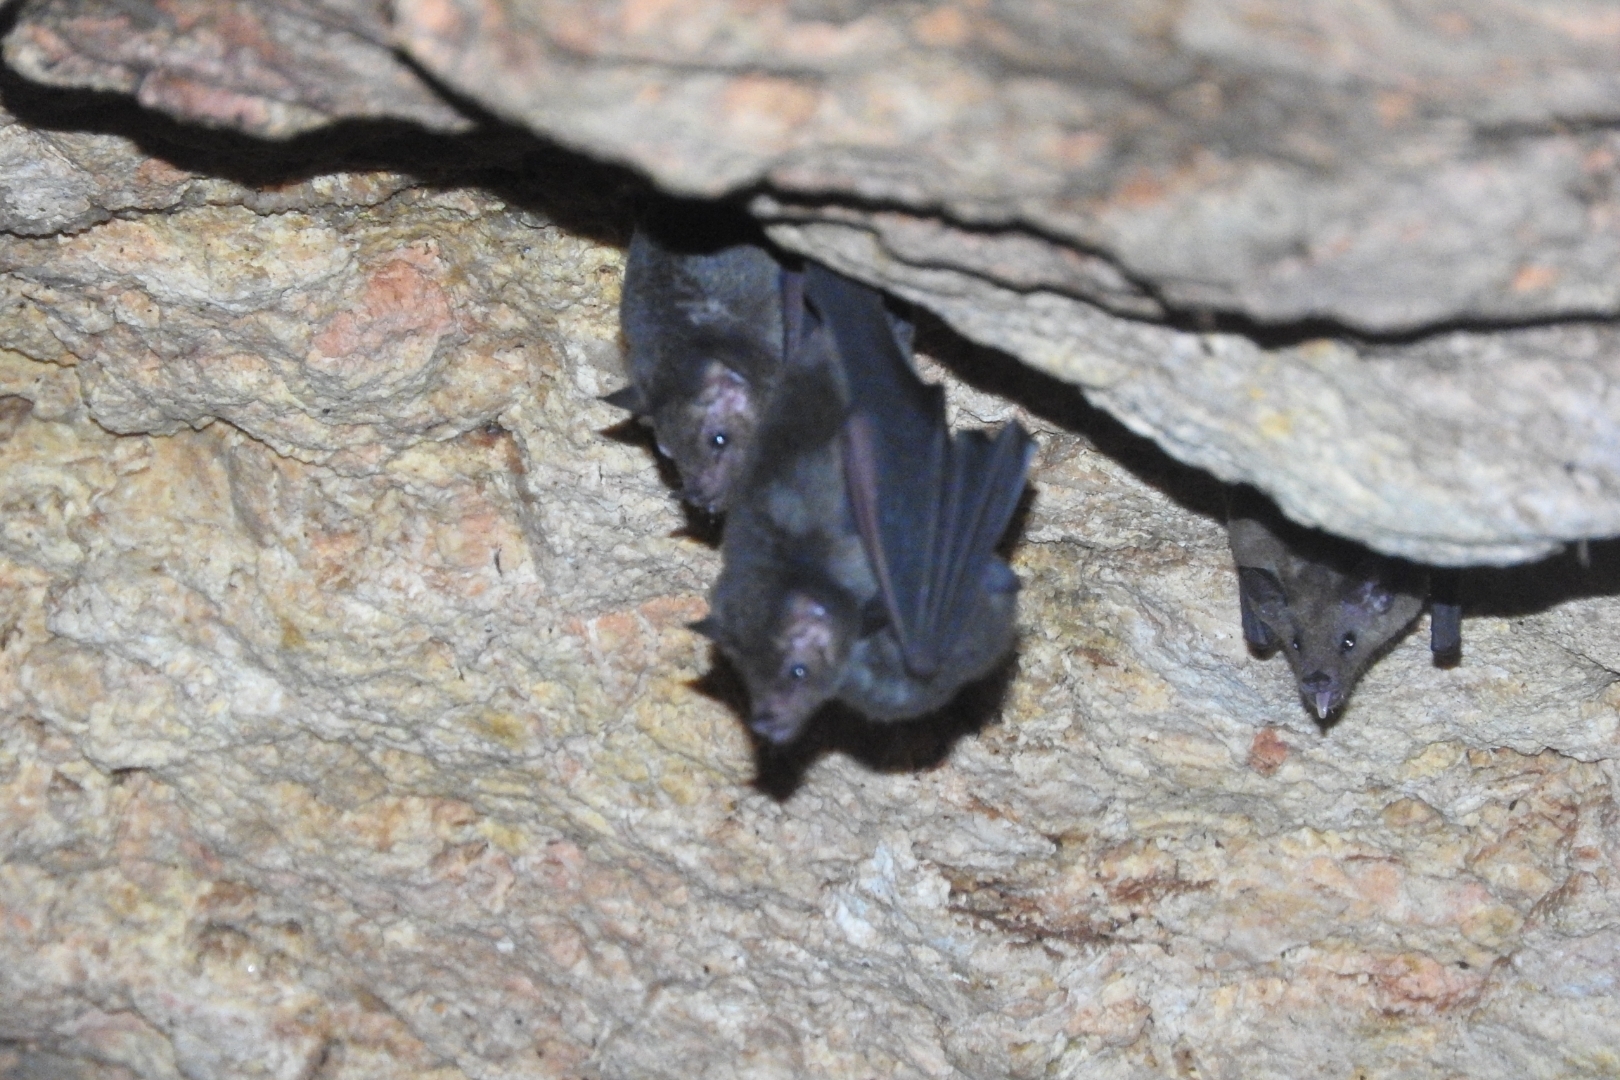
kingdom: Animalia
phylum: Chordata
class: Mammalia
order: Chiroptera
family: Phyllostomidae
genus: Glossophaga
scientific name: Glossophaga soricina
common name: Pallas's long-tongued bat
